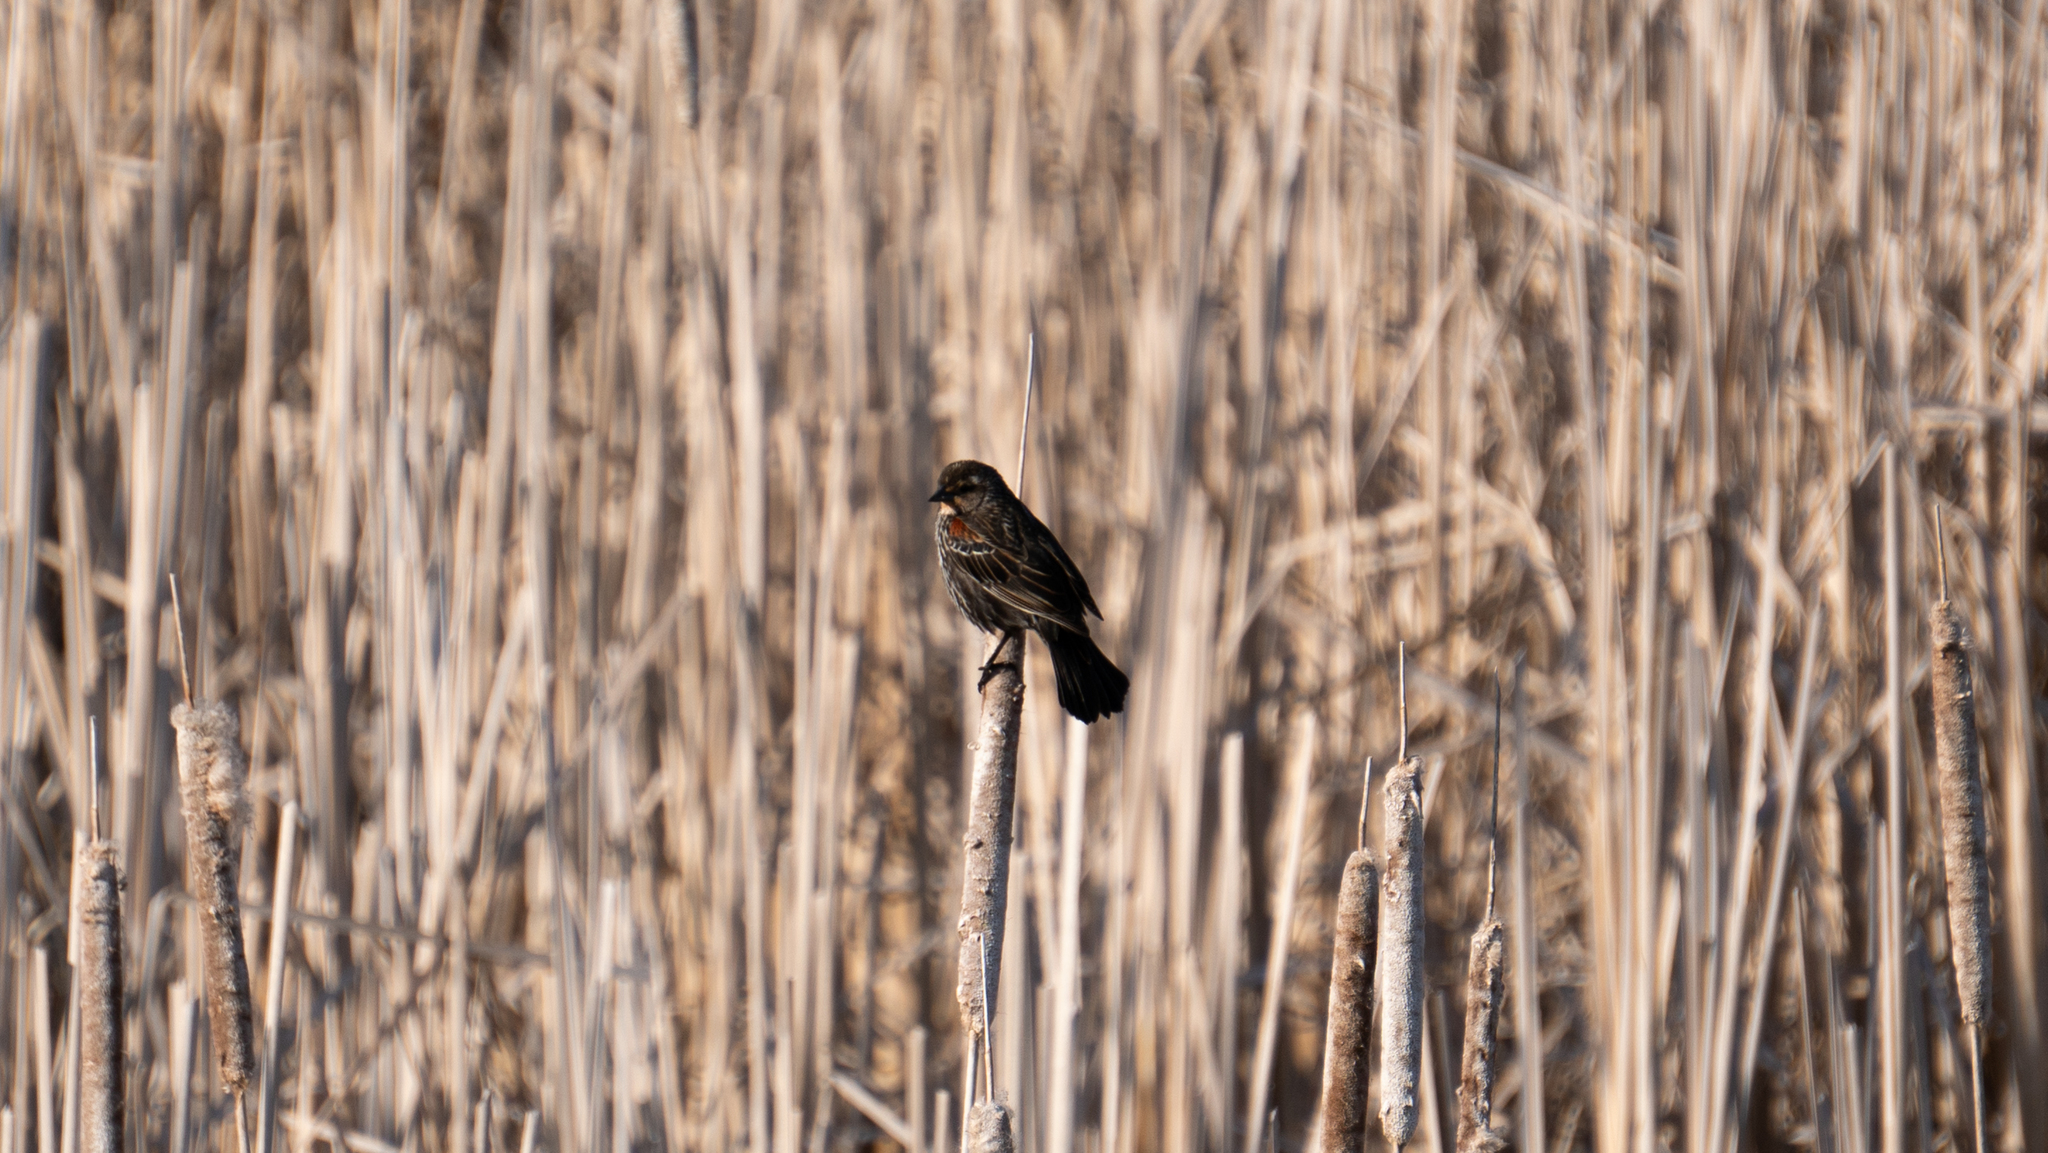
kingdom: Animalia
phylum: Chordata
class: Aves
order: Passeriformes
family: Icteridae
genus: Agelaius
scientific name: Agelaius phoeniceus
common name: Red-winged blackbird
